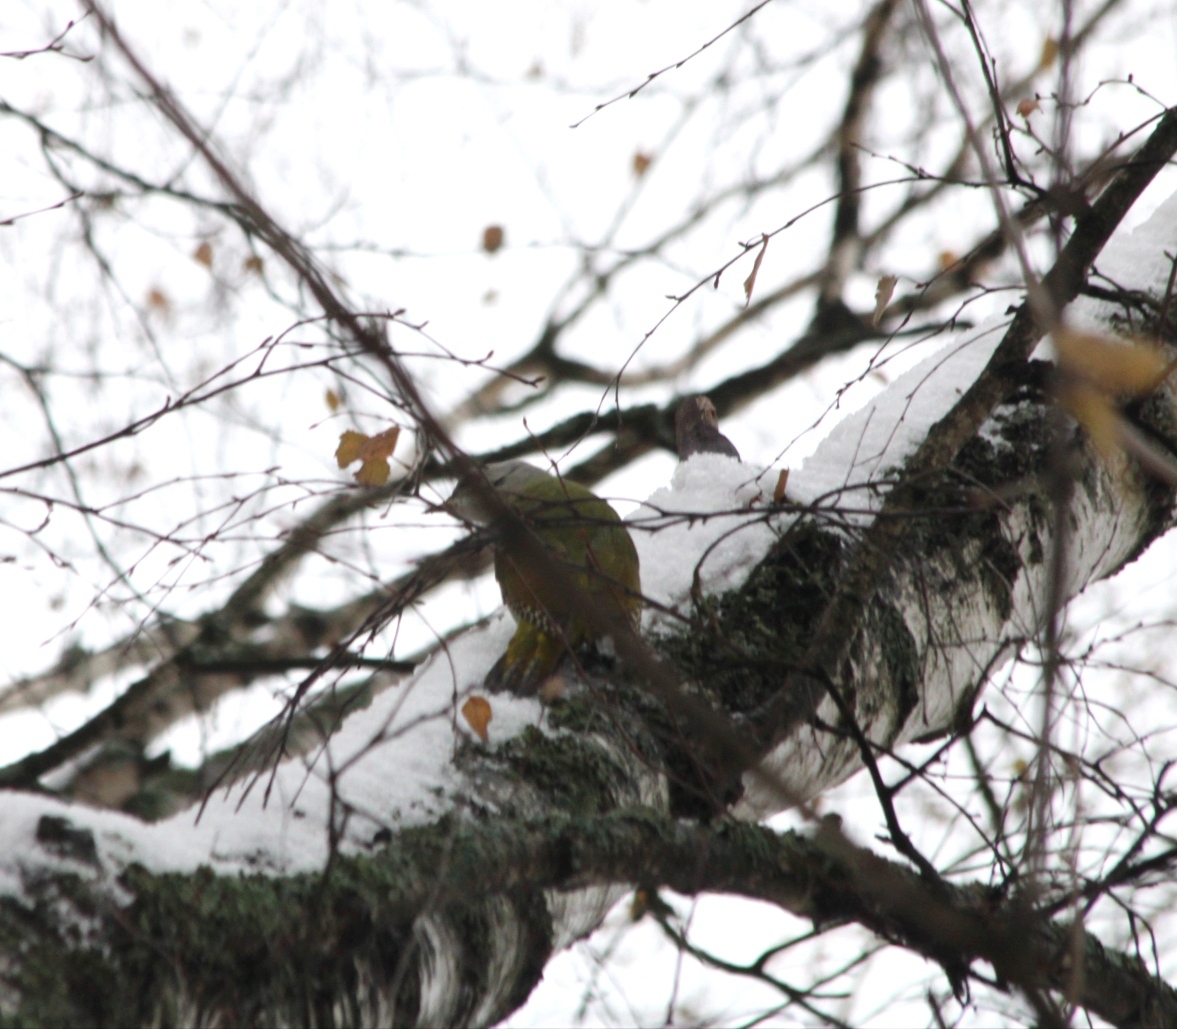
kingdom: Animalia
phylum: Chordata
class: Aves
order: Piciformes
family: Picidae
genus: Picus
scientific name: Picus canus
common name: Grey-headed woodpecker
